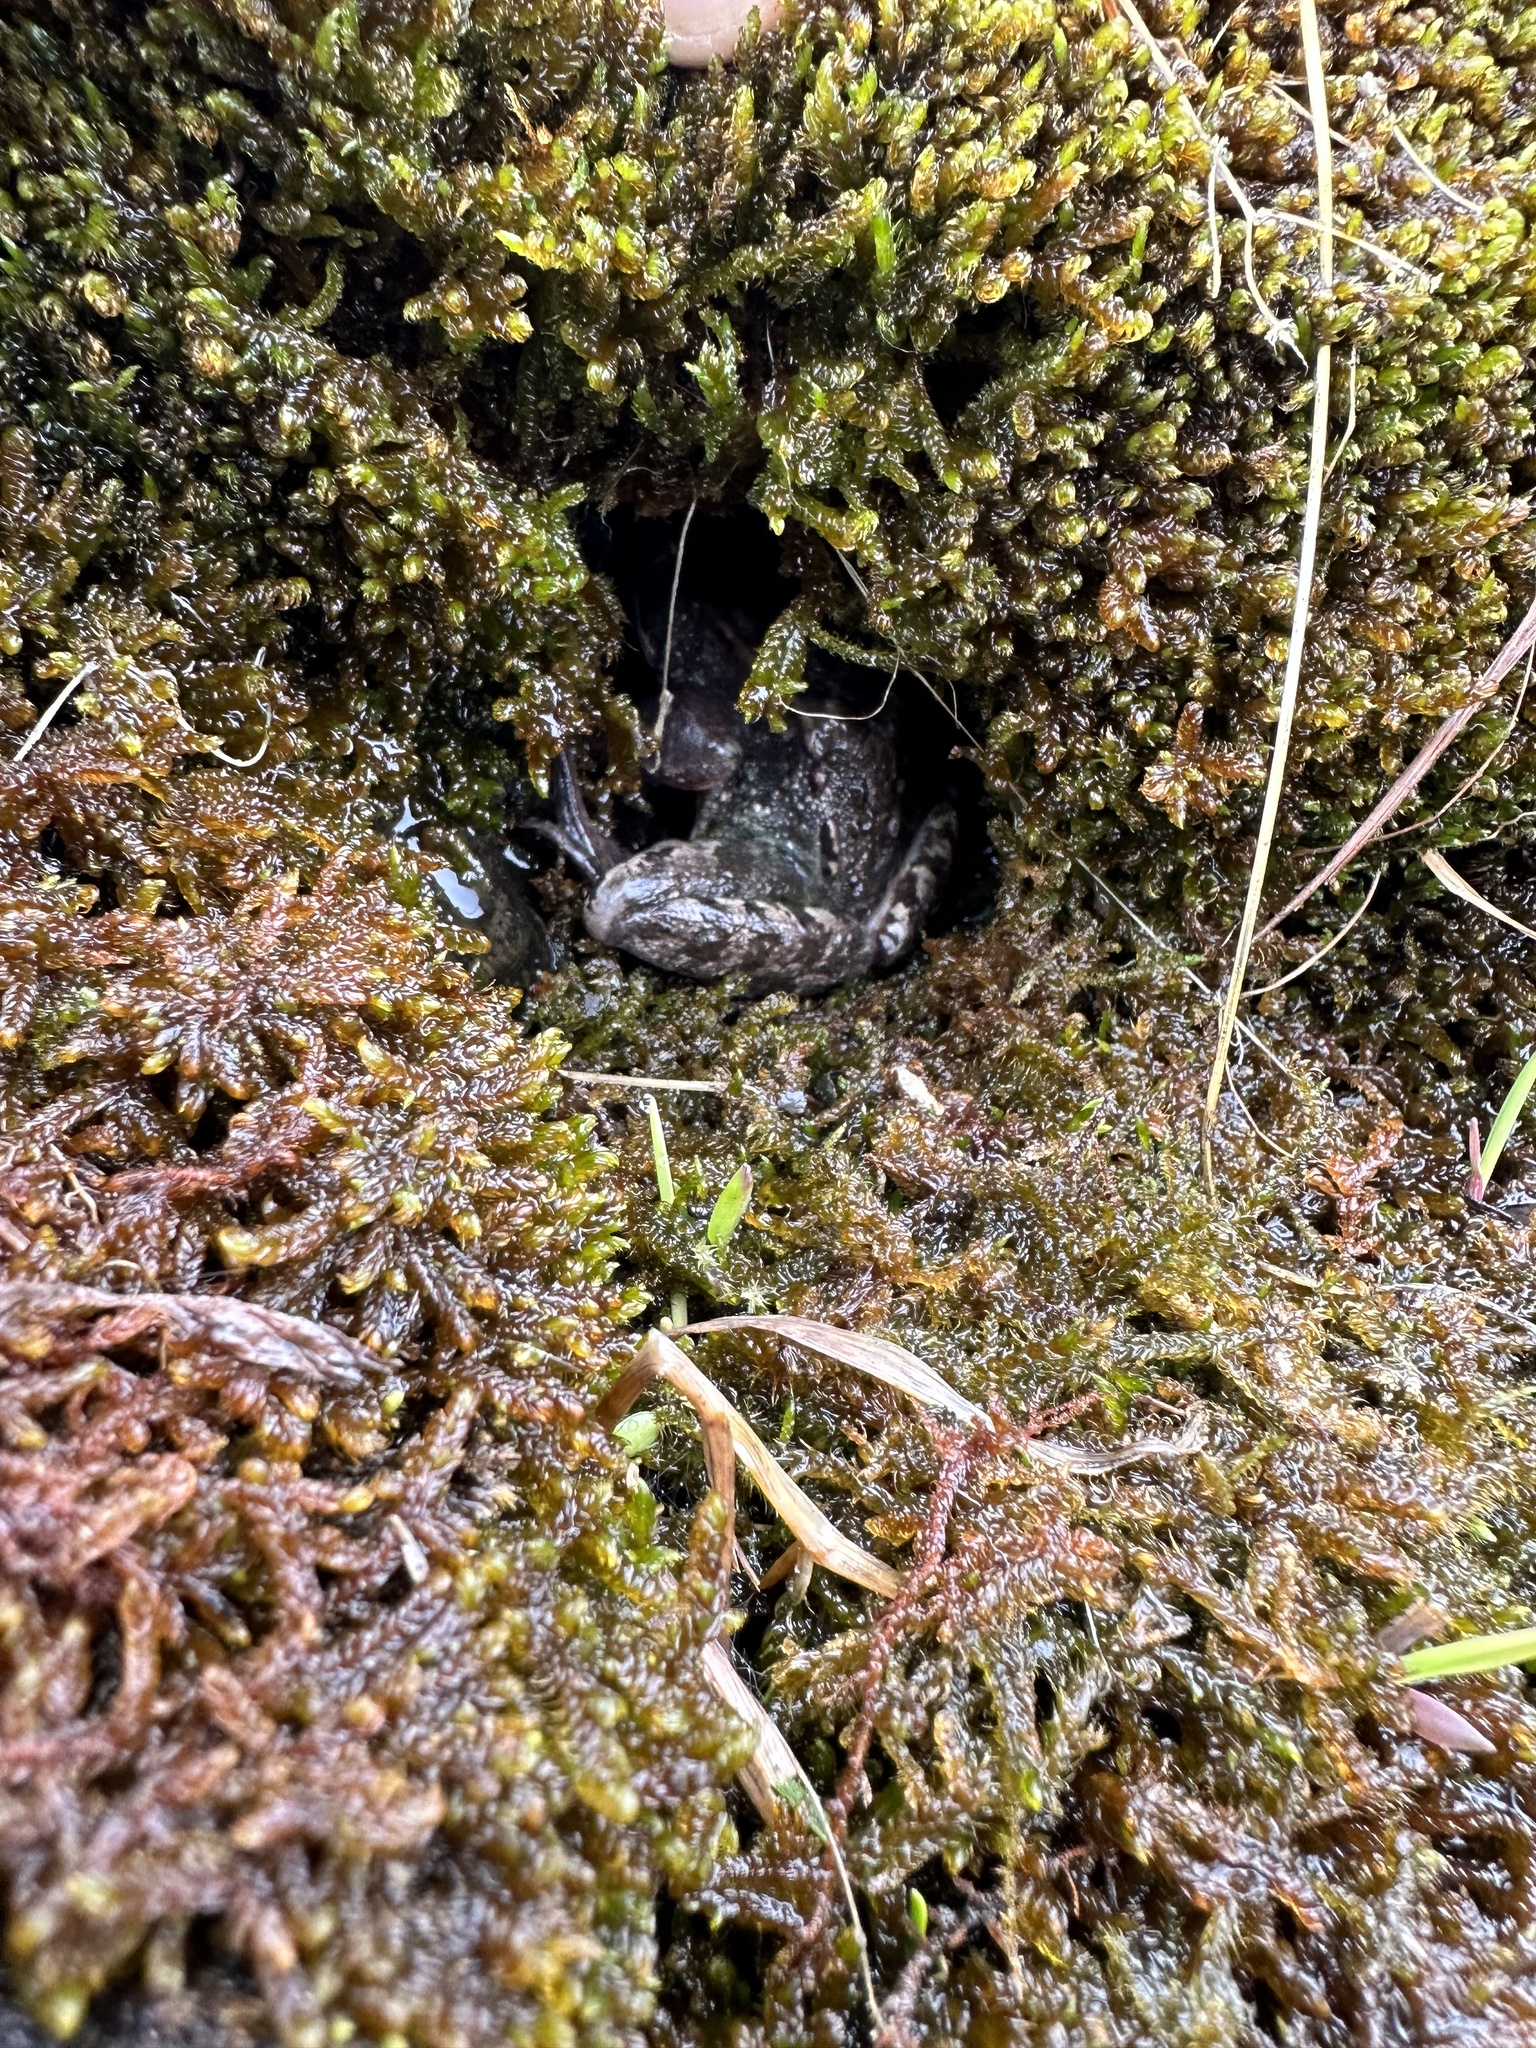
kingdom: Animalia
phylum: Chordata
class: Amphibia
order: Anura
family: Ranidae
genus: Rana
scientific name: Rana temporaria
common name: Common frog
